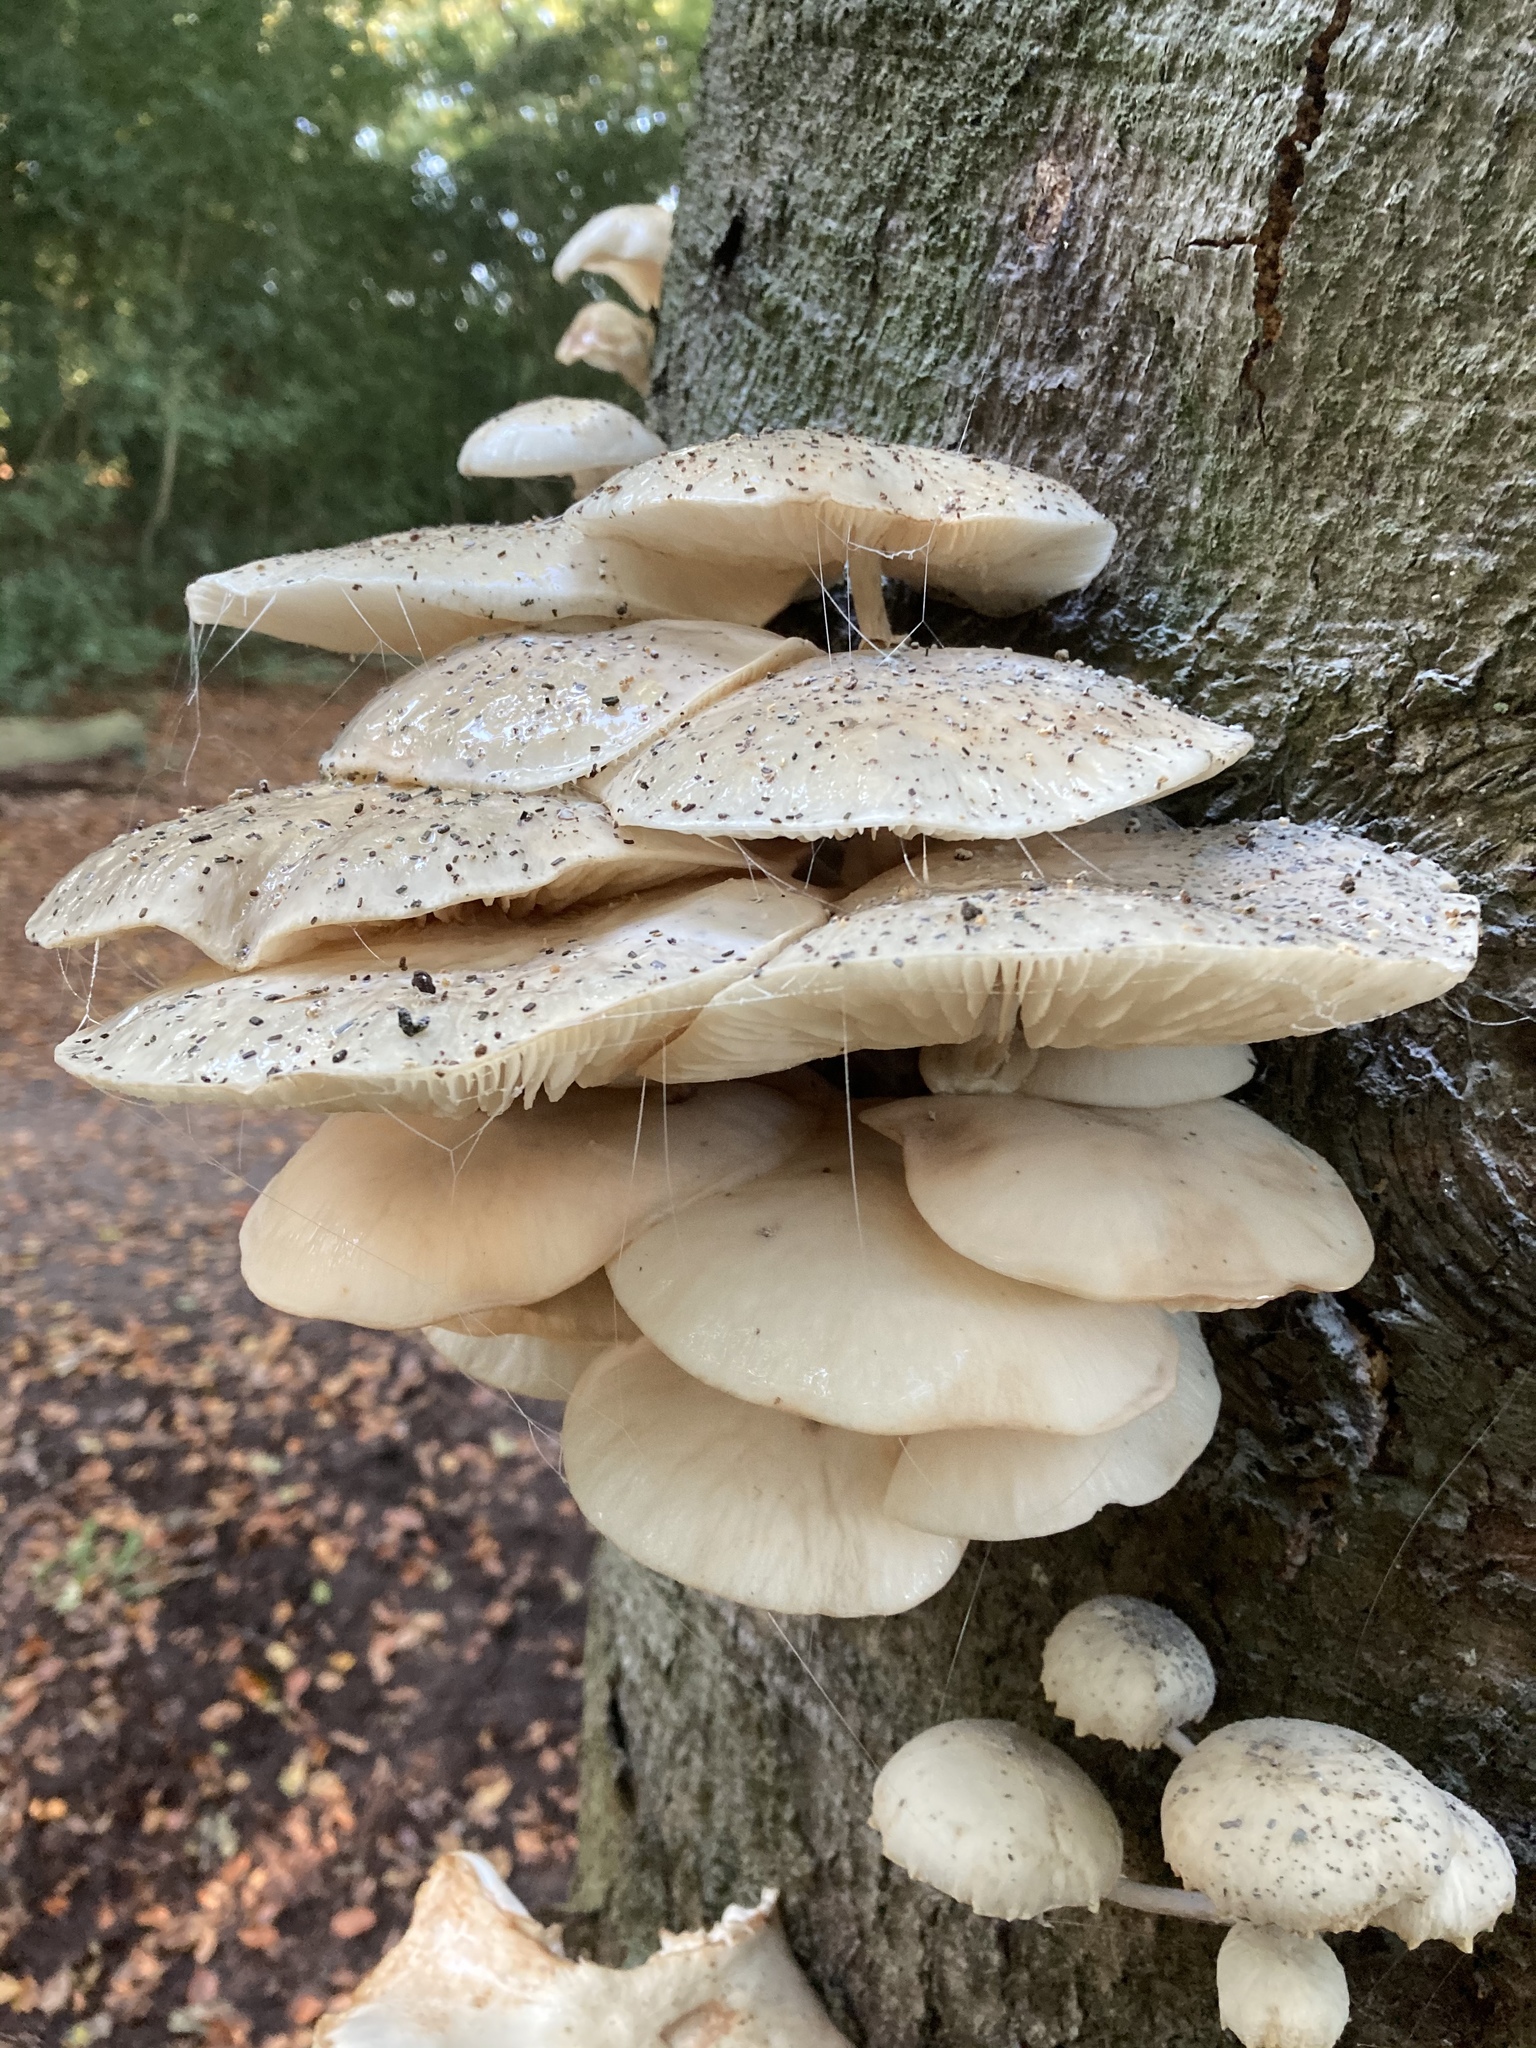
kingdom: Fungi
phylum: Basidiomycota
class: Agaricomycetes
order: Agaricales
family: Physalacriaceae
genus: Mucidula
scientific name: Mucidula mucida
